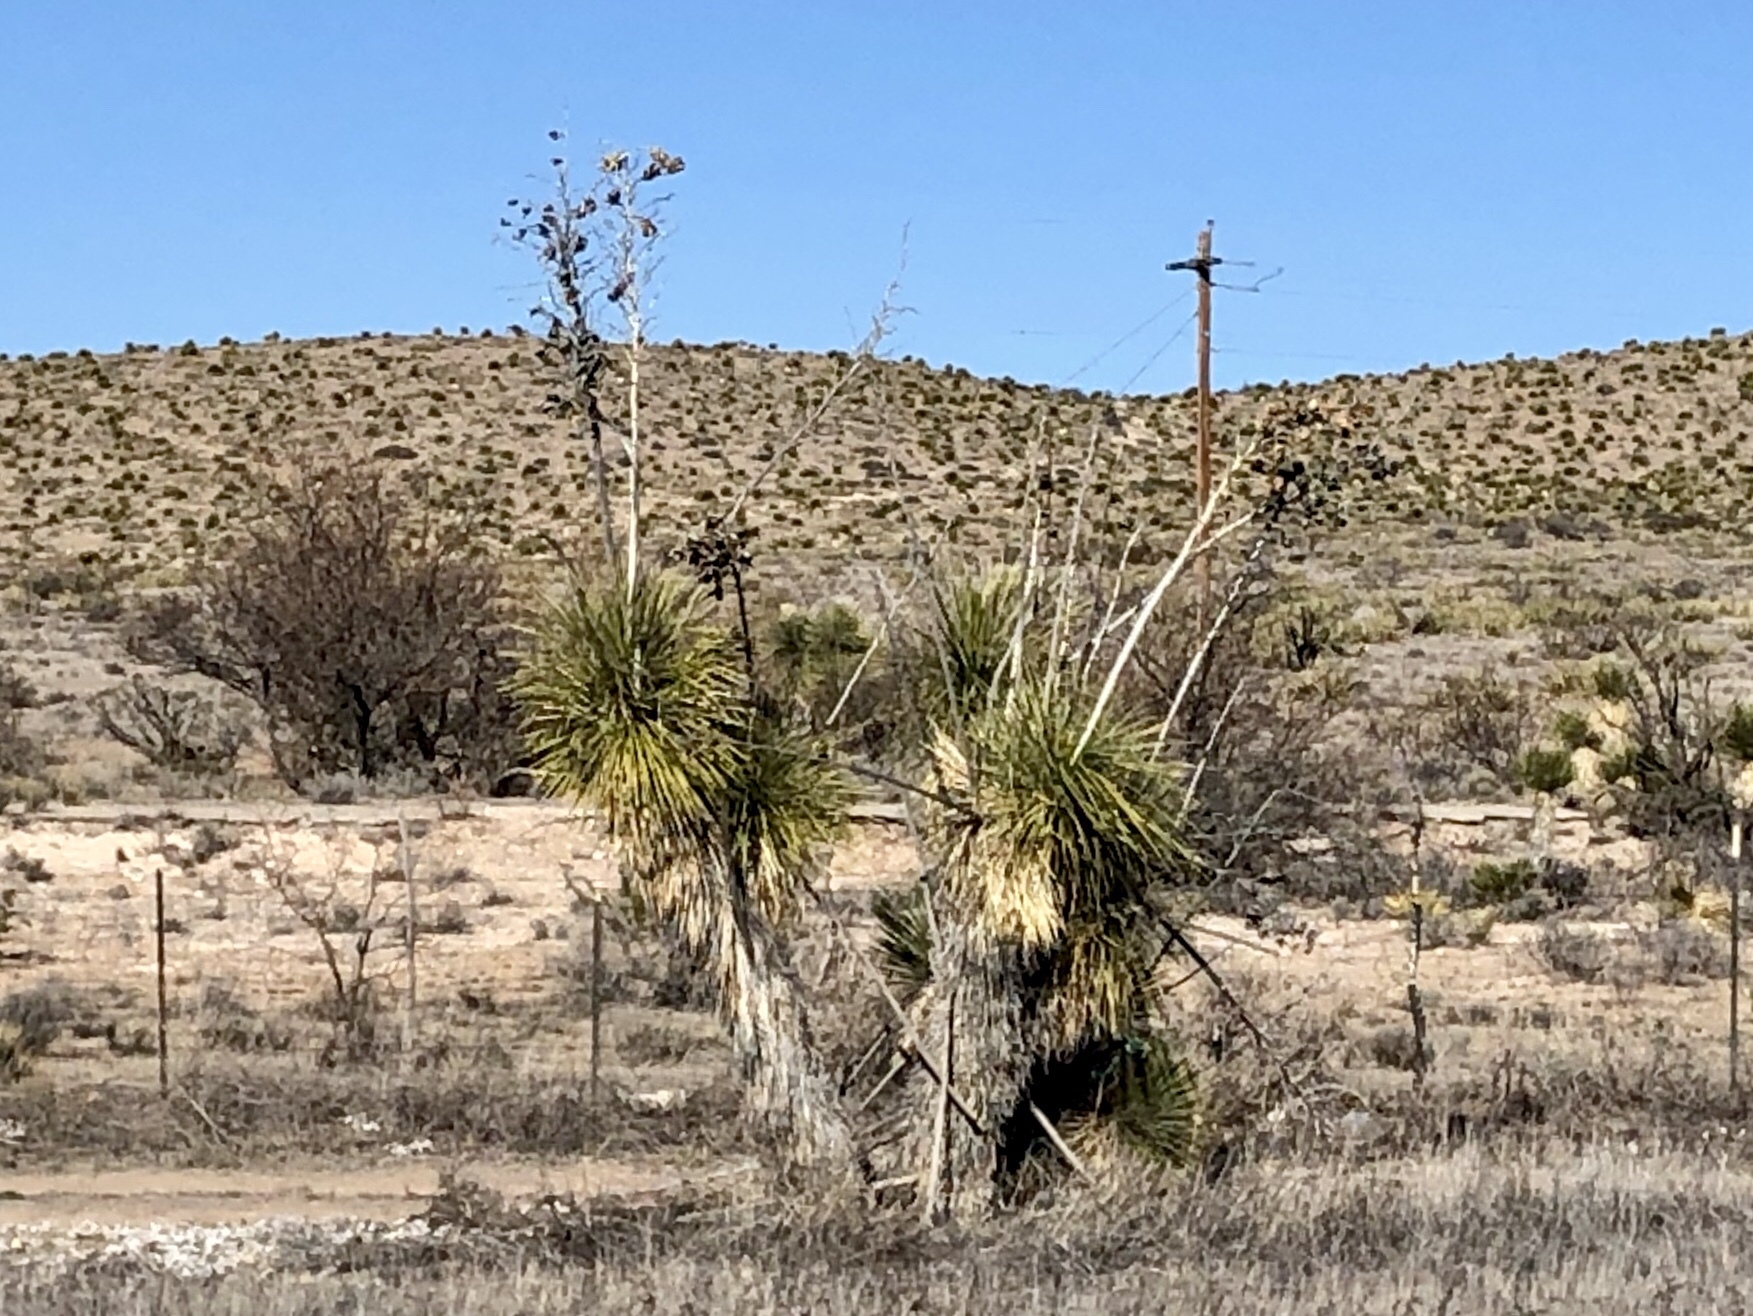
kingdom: Plantae
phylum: Tracheophyta
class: Liliopsida
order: Asparagales
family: Asparagaceae
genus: Yucca
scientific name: Yucca elata
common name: Palmella
